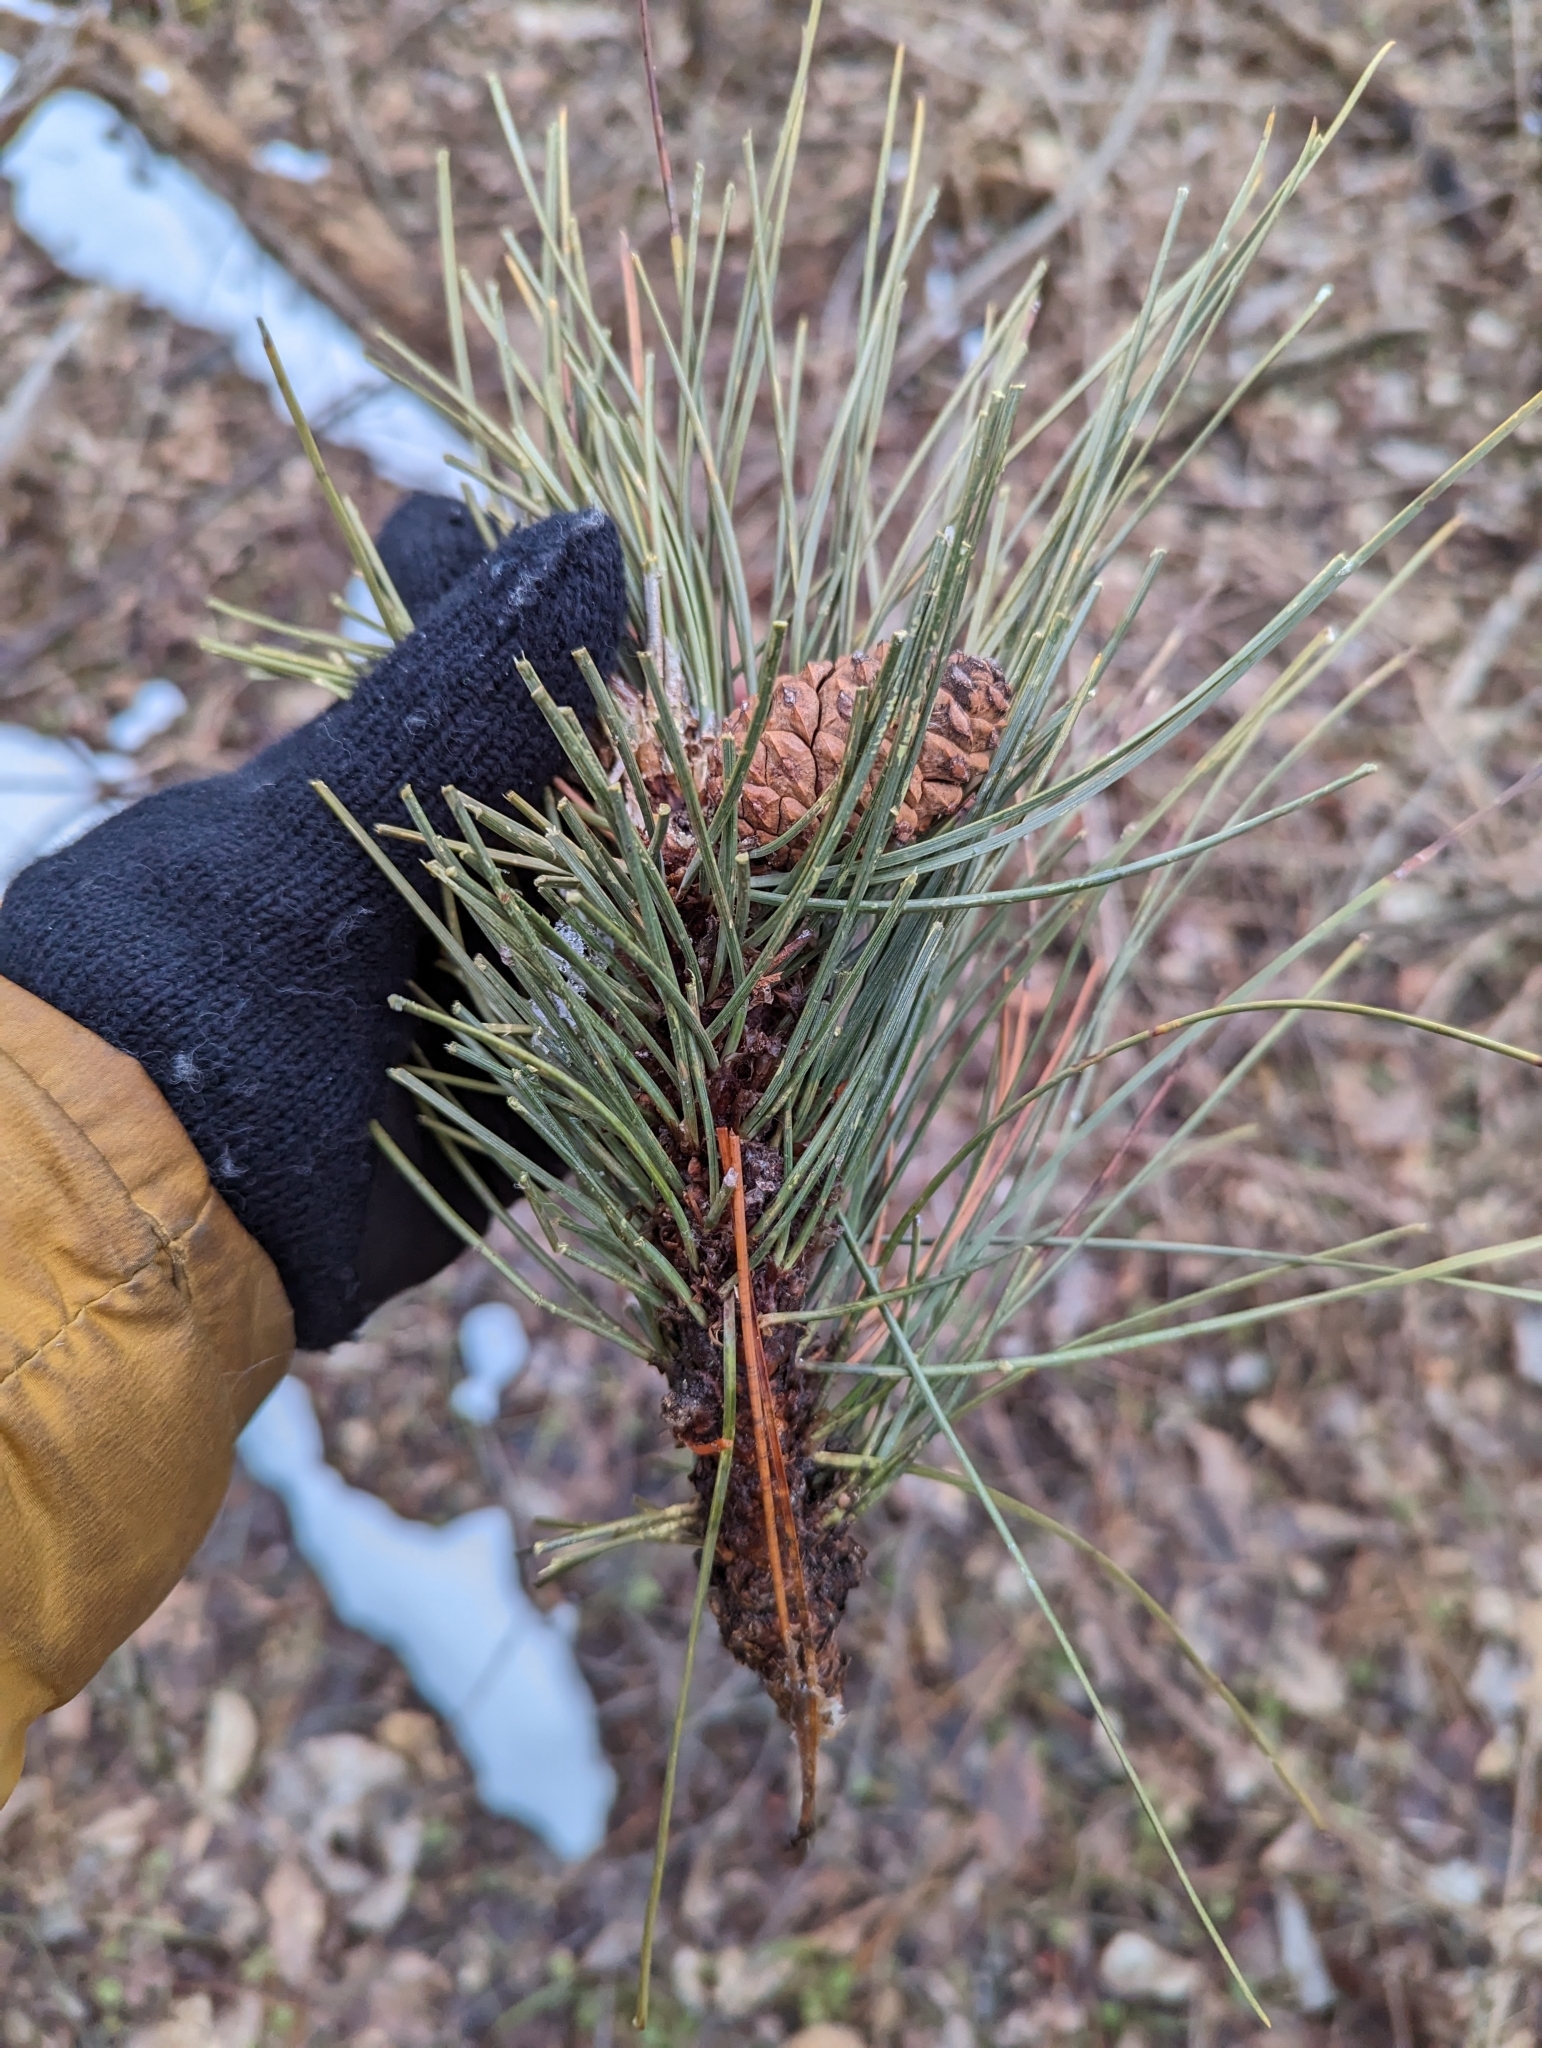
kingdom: Plantae
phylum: Tracheophyta
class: Pinopsida
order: Pinales
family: Pinaceae
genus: Pinus
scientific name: Pinus resinosa
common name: Norway pine
